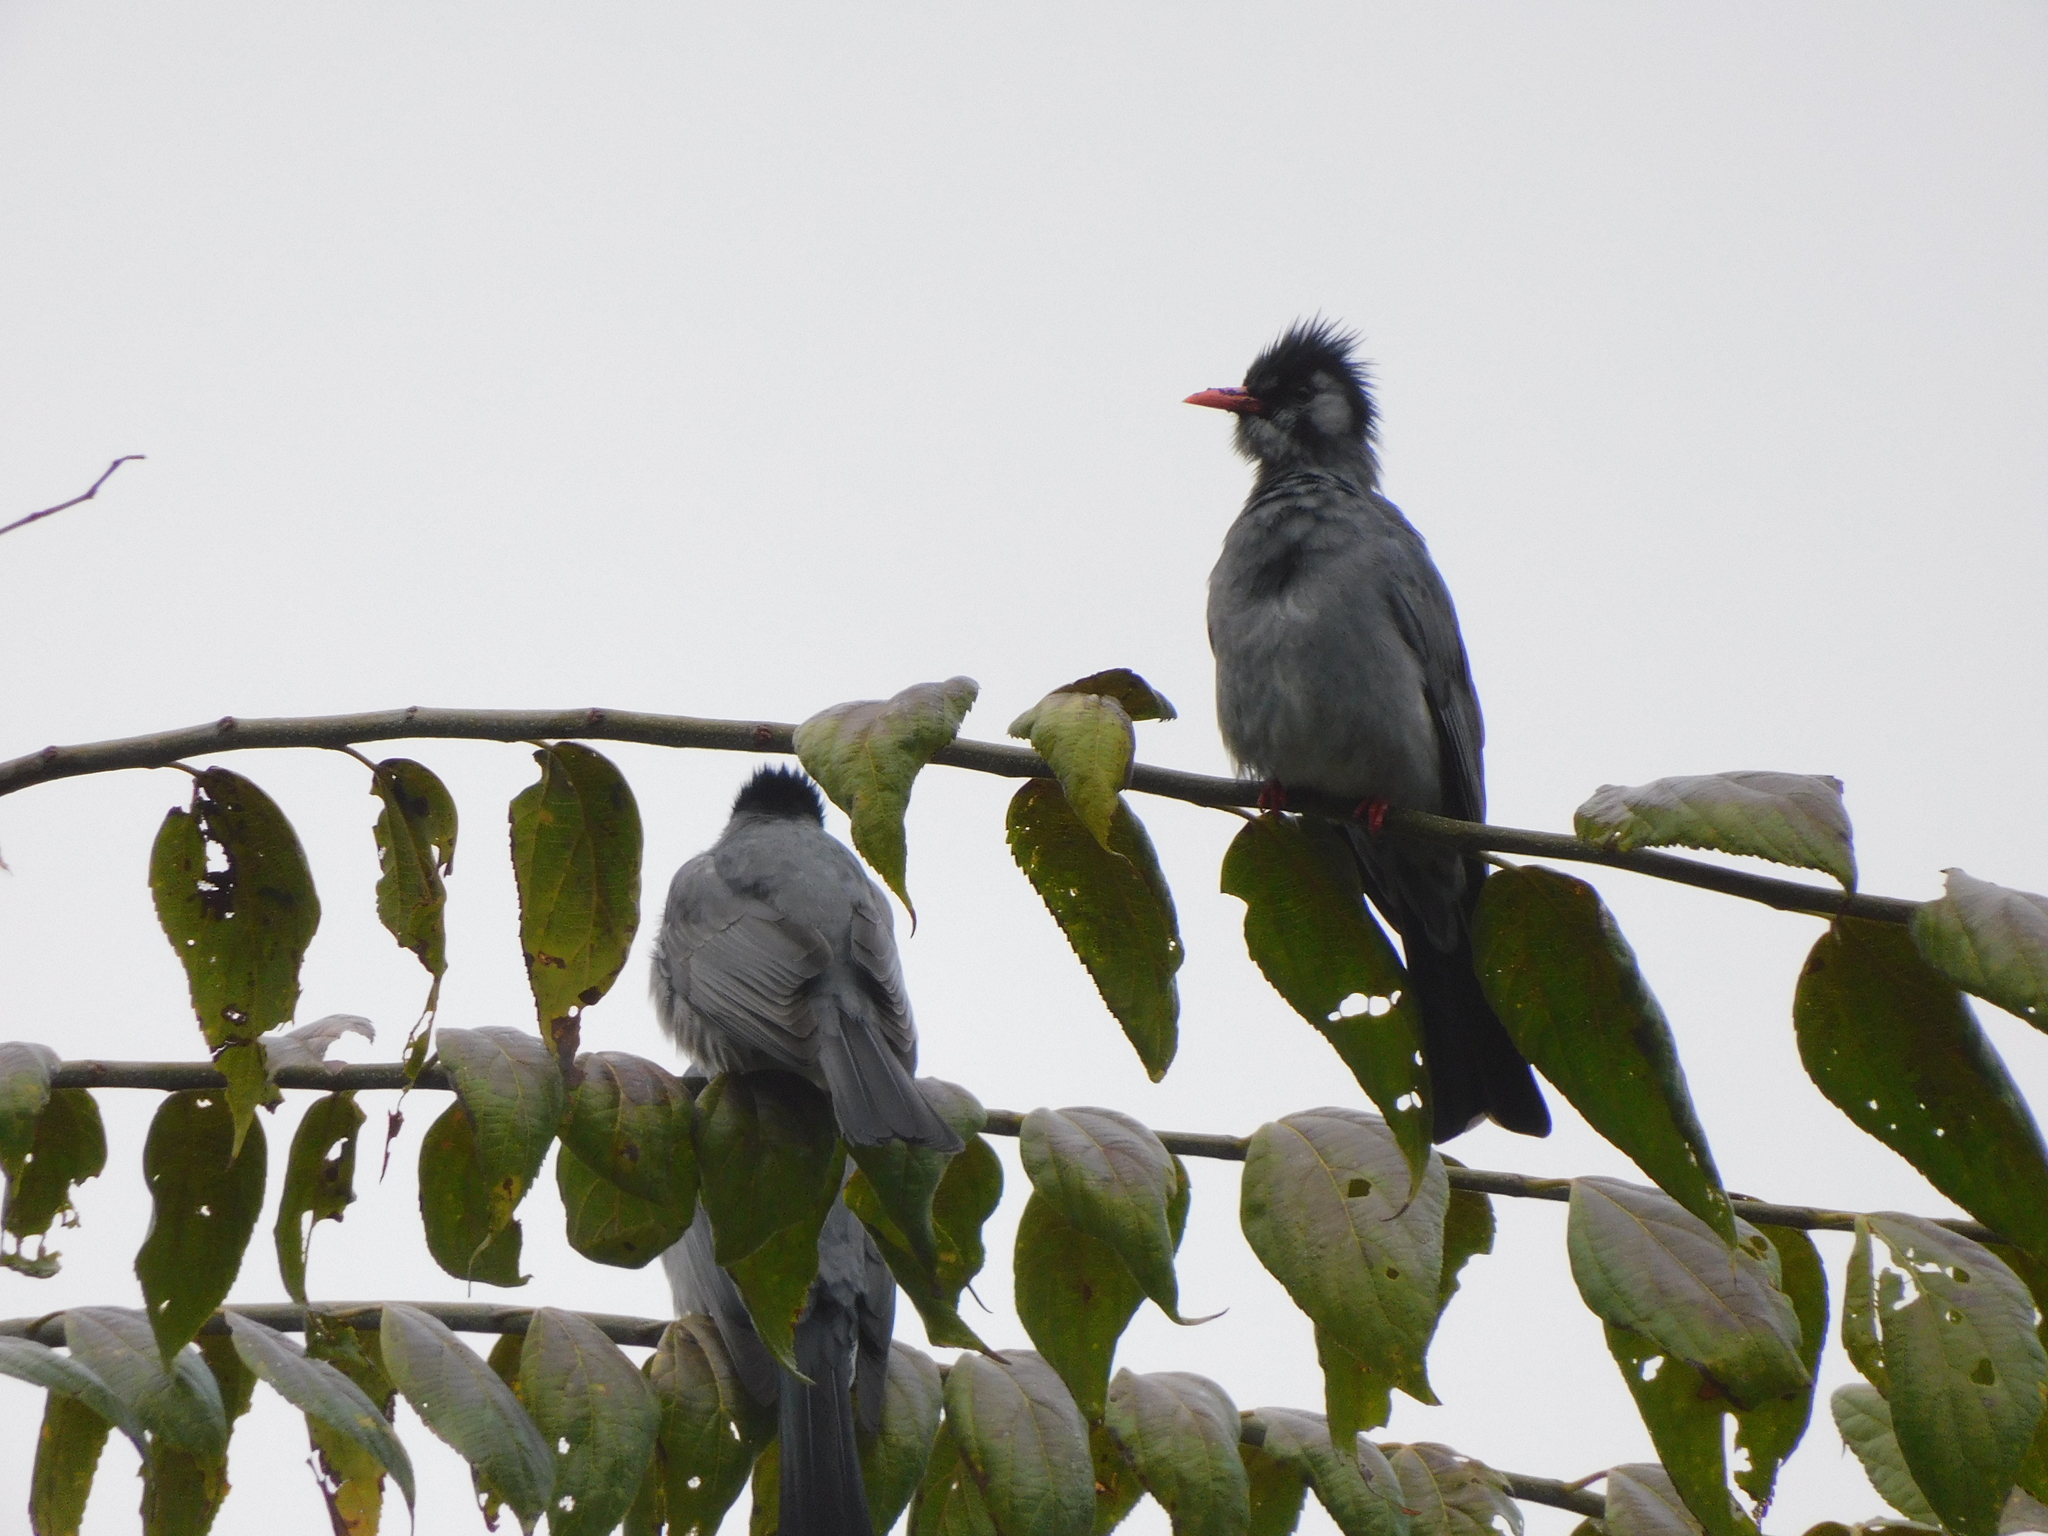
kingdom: Animalia
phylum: Chordata
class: Aves
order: Passeriformes
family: Pycnonotidae
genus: Hypsipetes
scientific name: Hypsipetes leucocephalus
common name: Black bulbul
